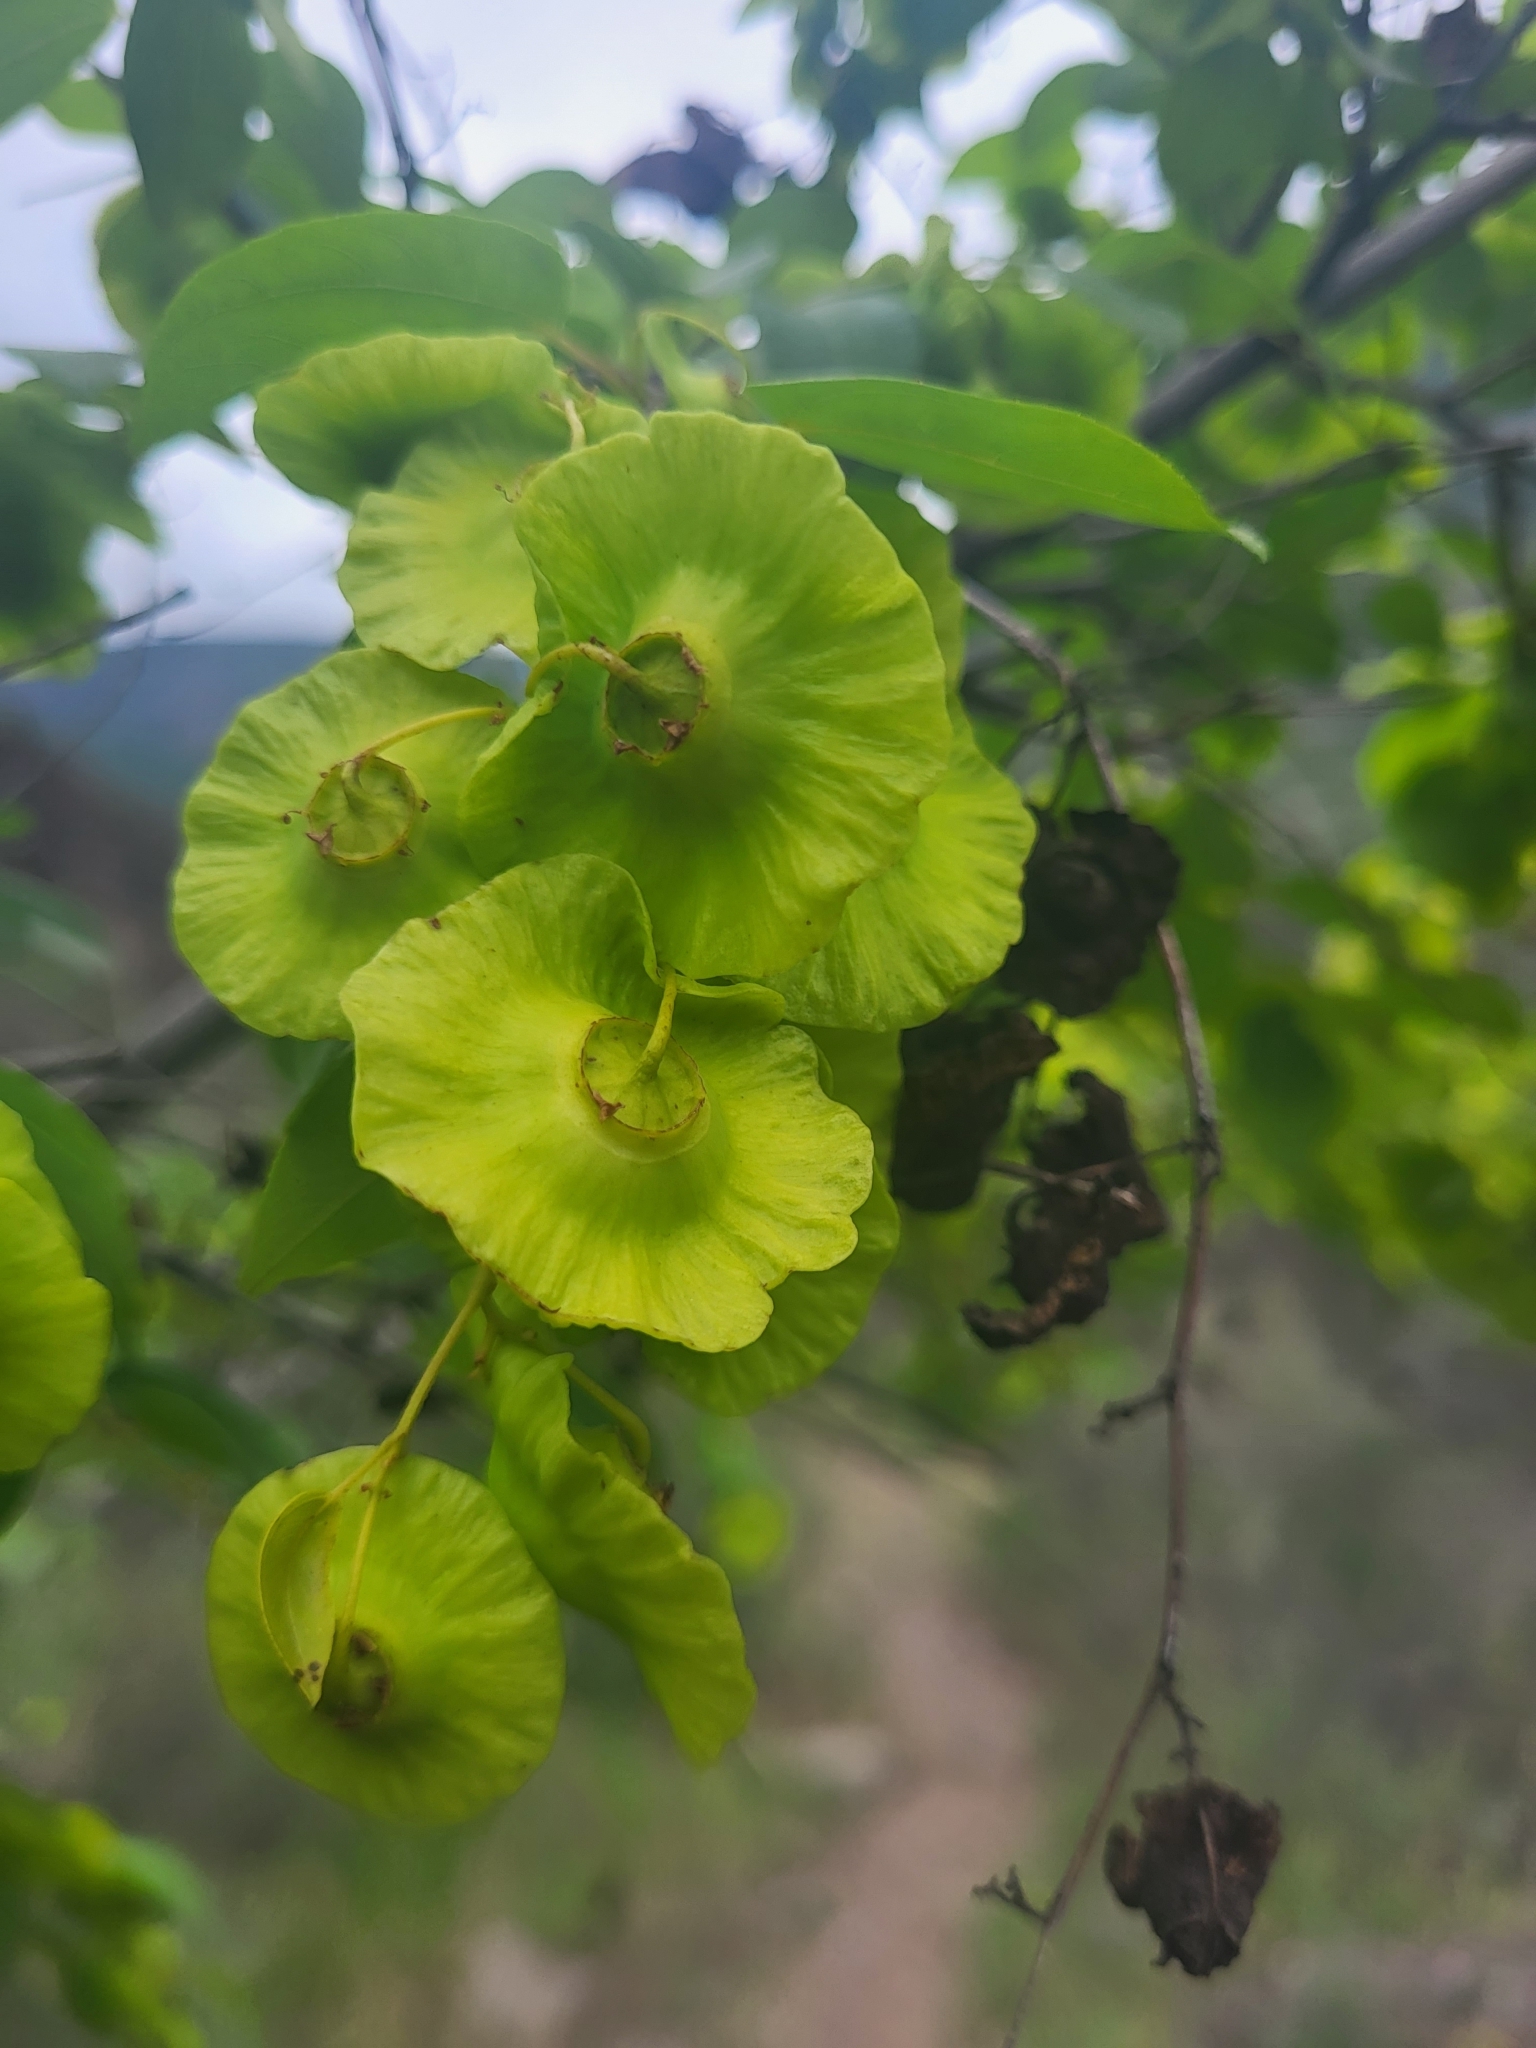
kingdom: Plantae
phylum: Tracheophyta
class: Magnoliopsida
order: Rosales
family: Rhamnaceae
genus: Paliurus
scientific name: Paliurus spina-christi
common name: Jeruselem thorn
